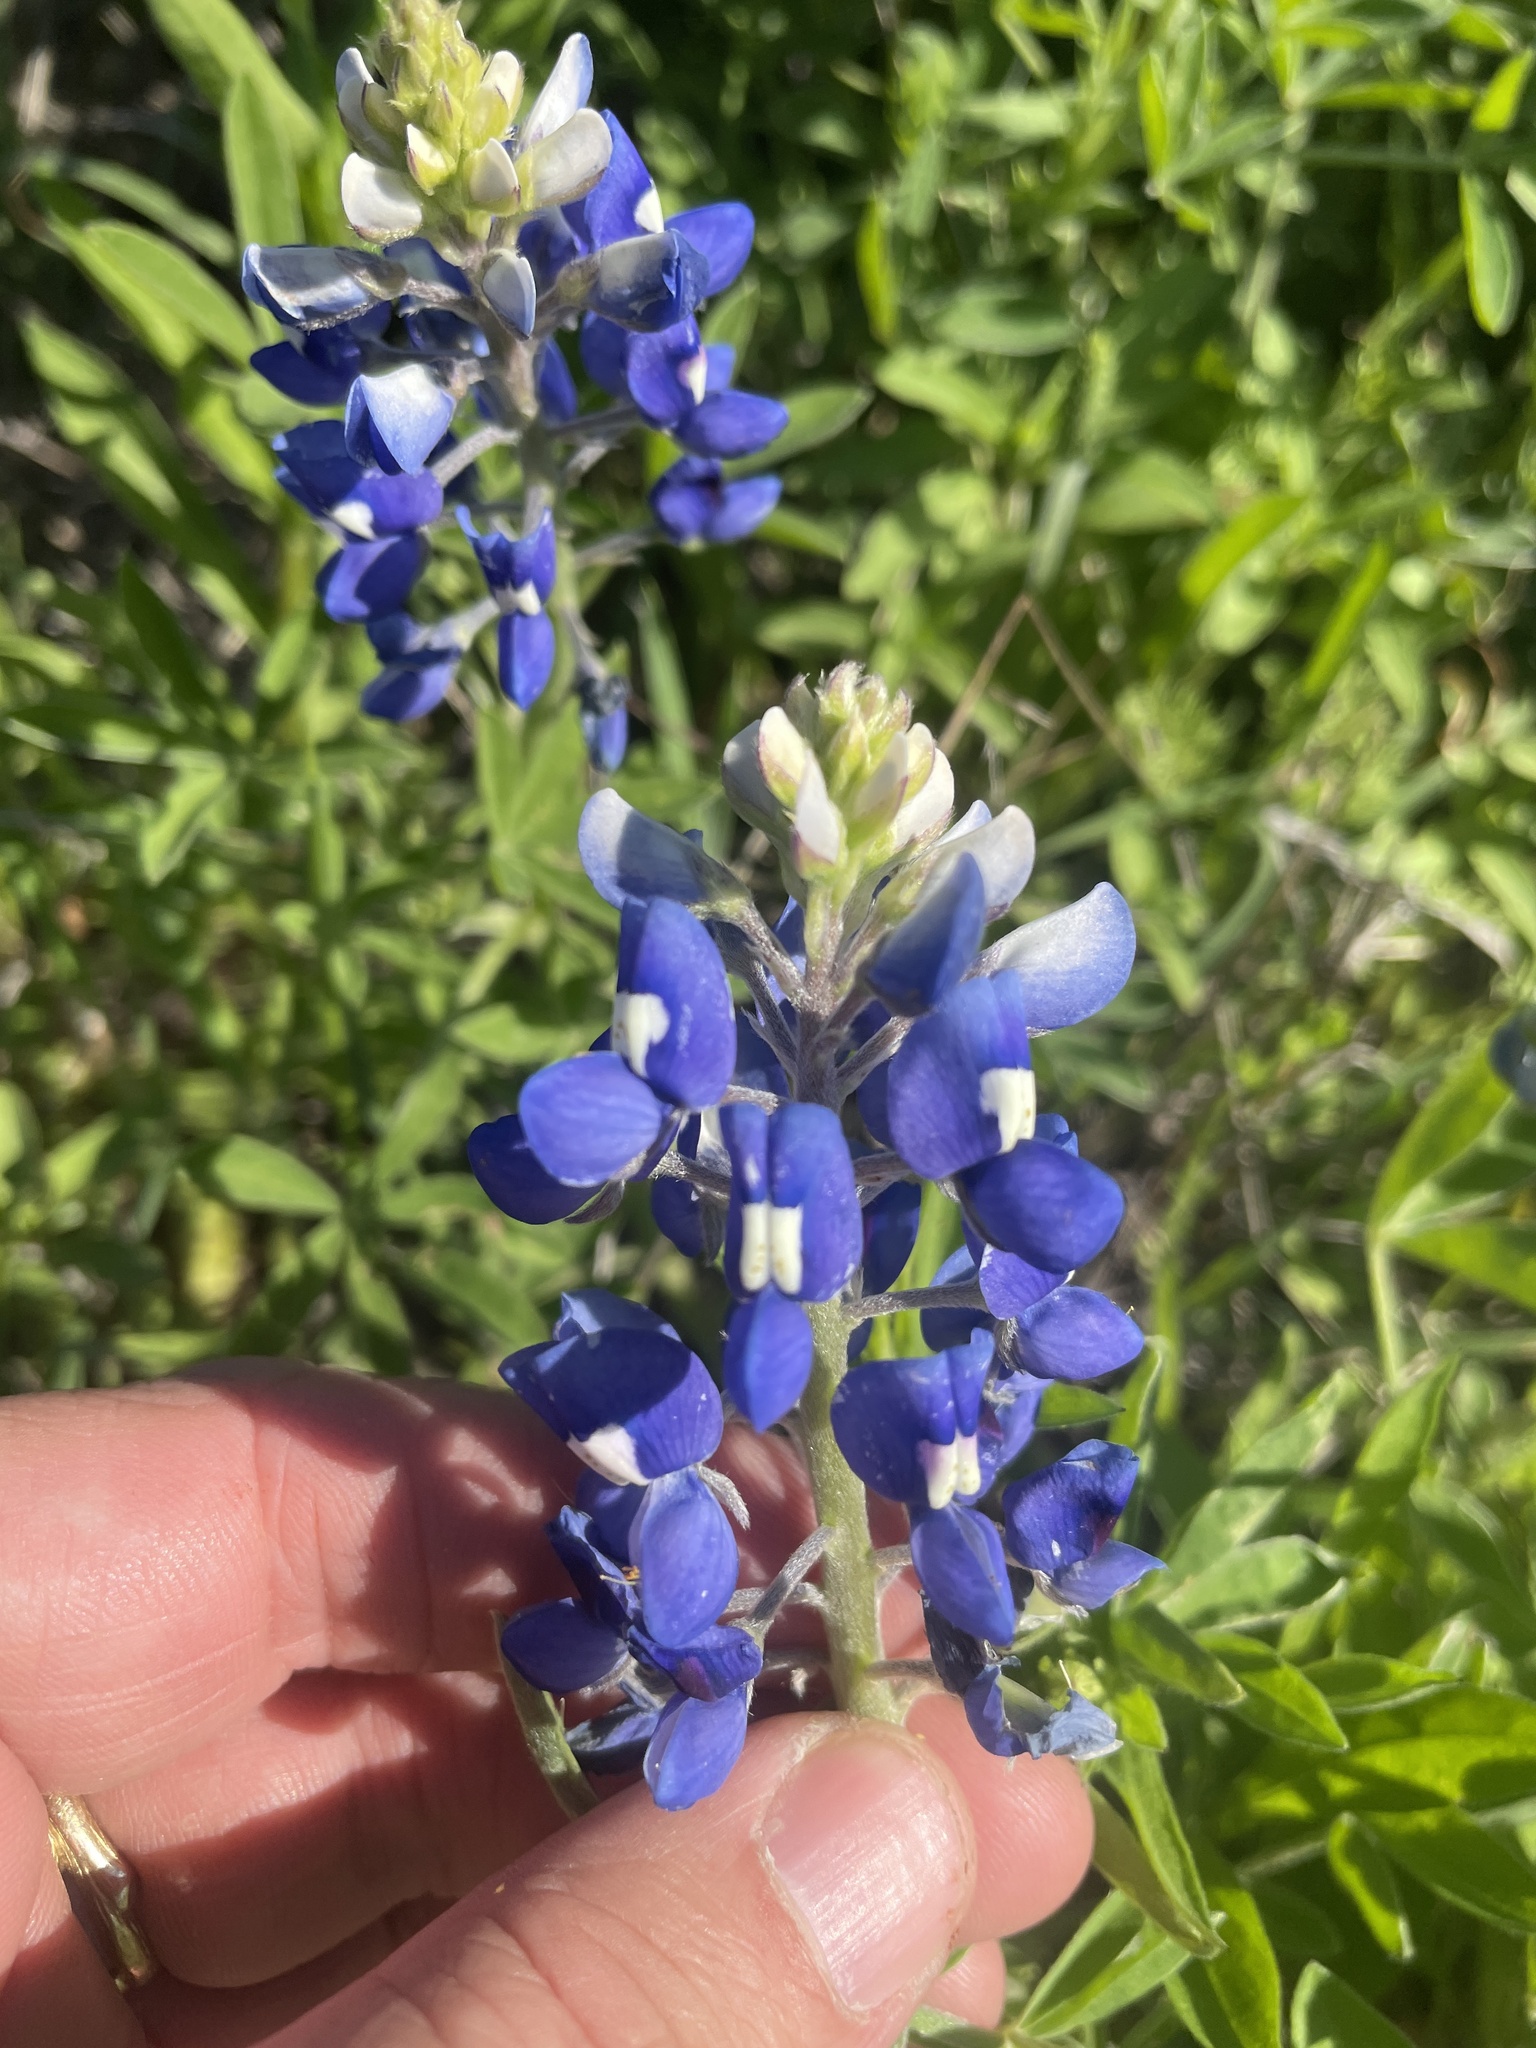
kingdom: Plantae
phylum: Tracheophyta
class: Magnoliopsida
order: Fabales
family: Fabaceae
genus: Lupinus
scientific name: Lupinus texensis
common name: Texas bluebonnet
